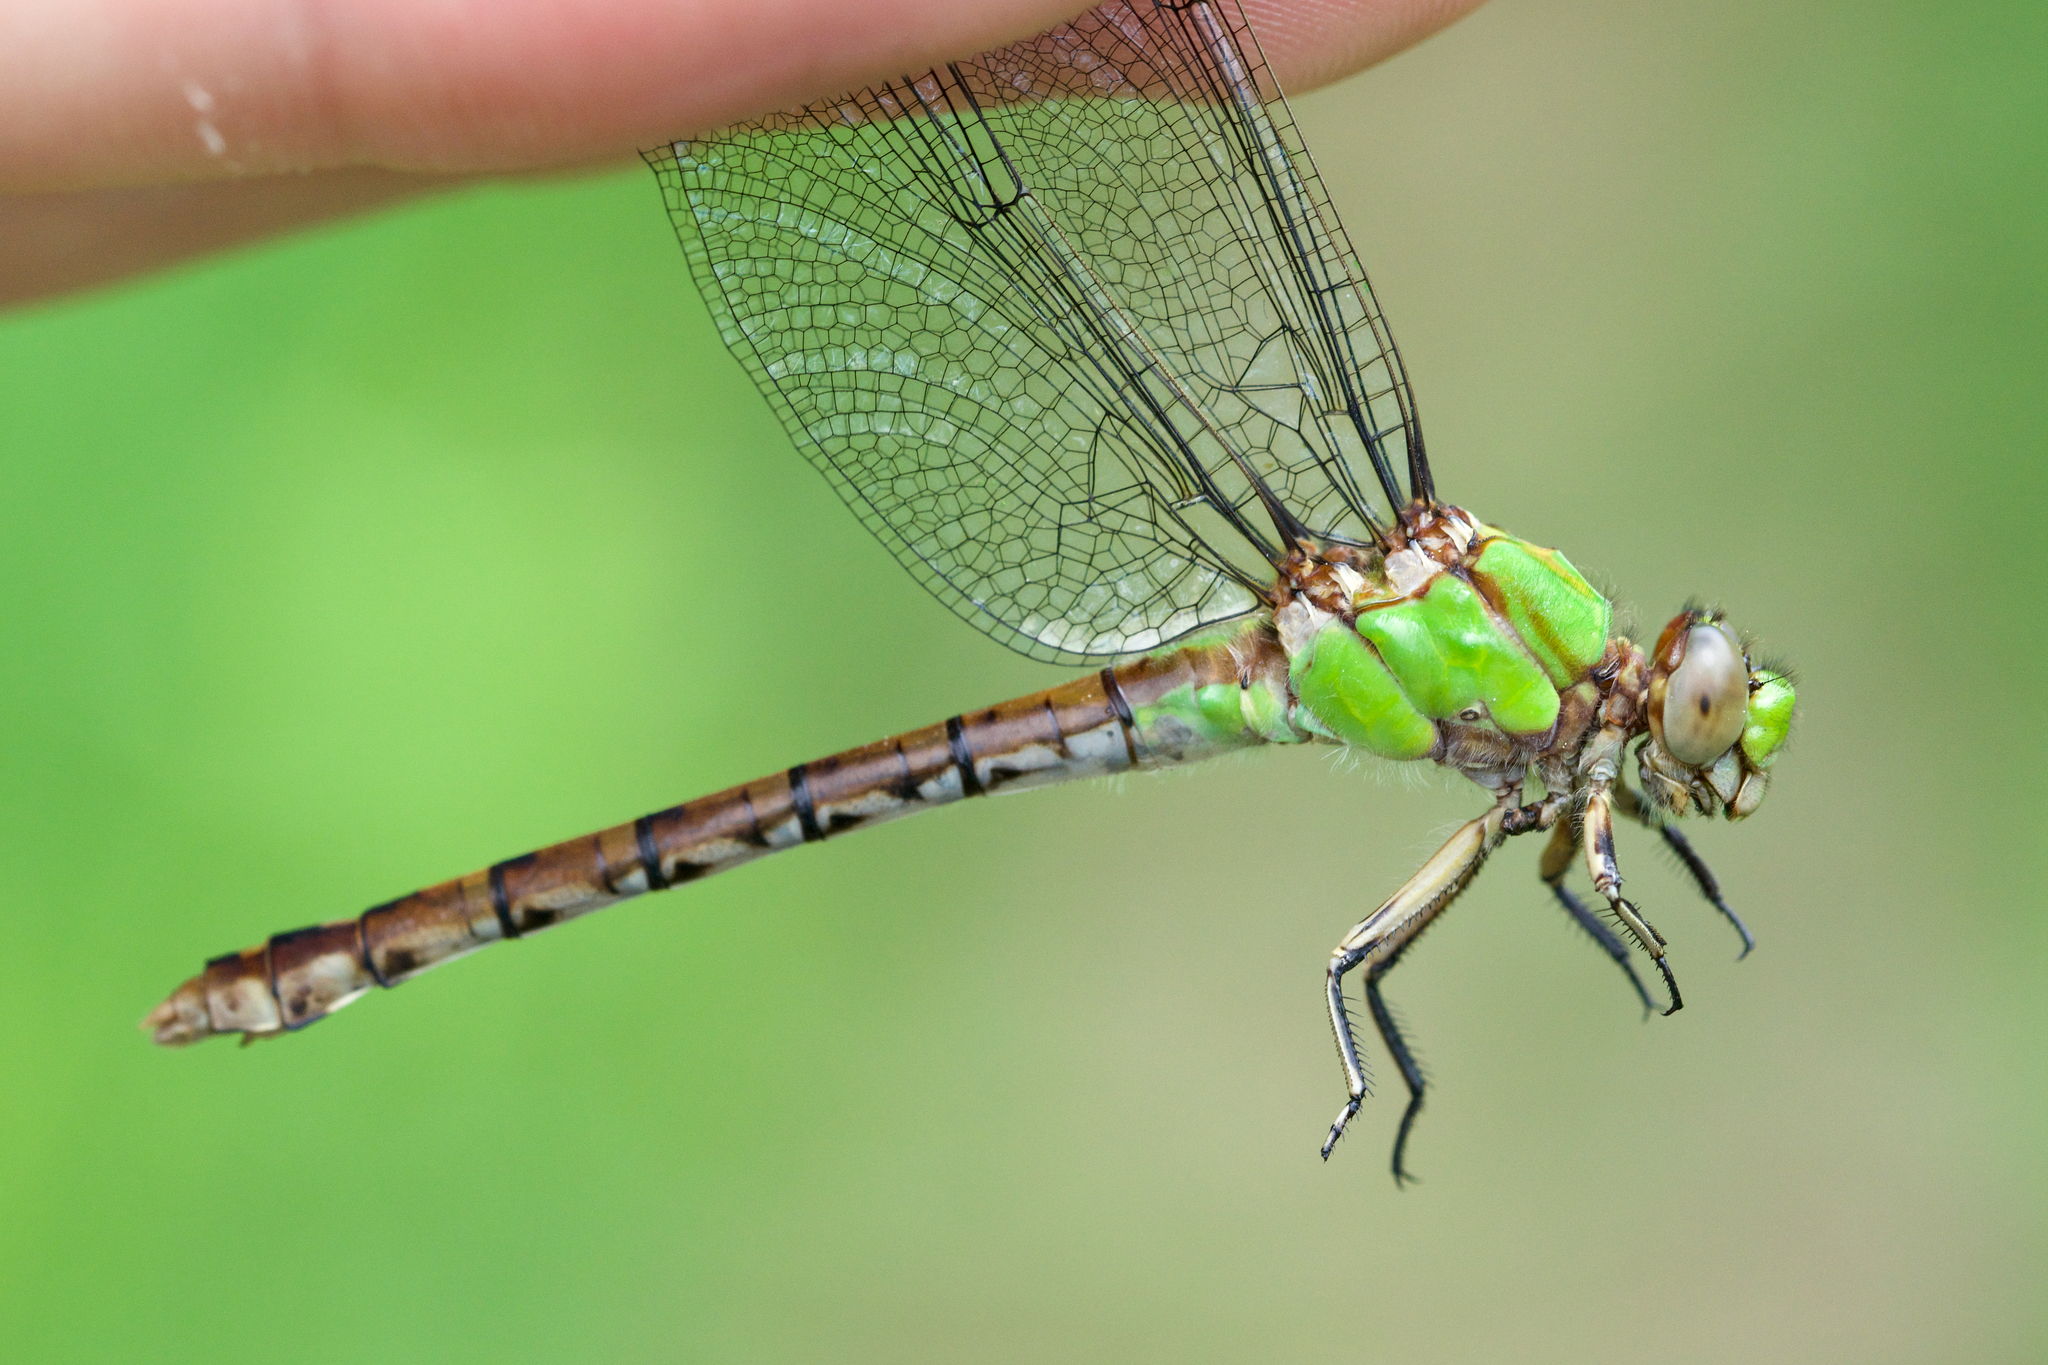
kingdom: Animalia
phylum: Arthropoda
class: Insecta
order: Odonata
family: Gomphidae
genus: Ophiogomphus
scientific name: Ophiogomphus rupinsulensis
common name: Rusty snaketail
